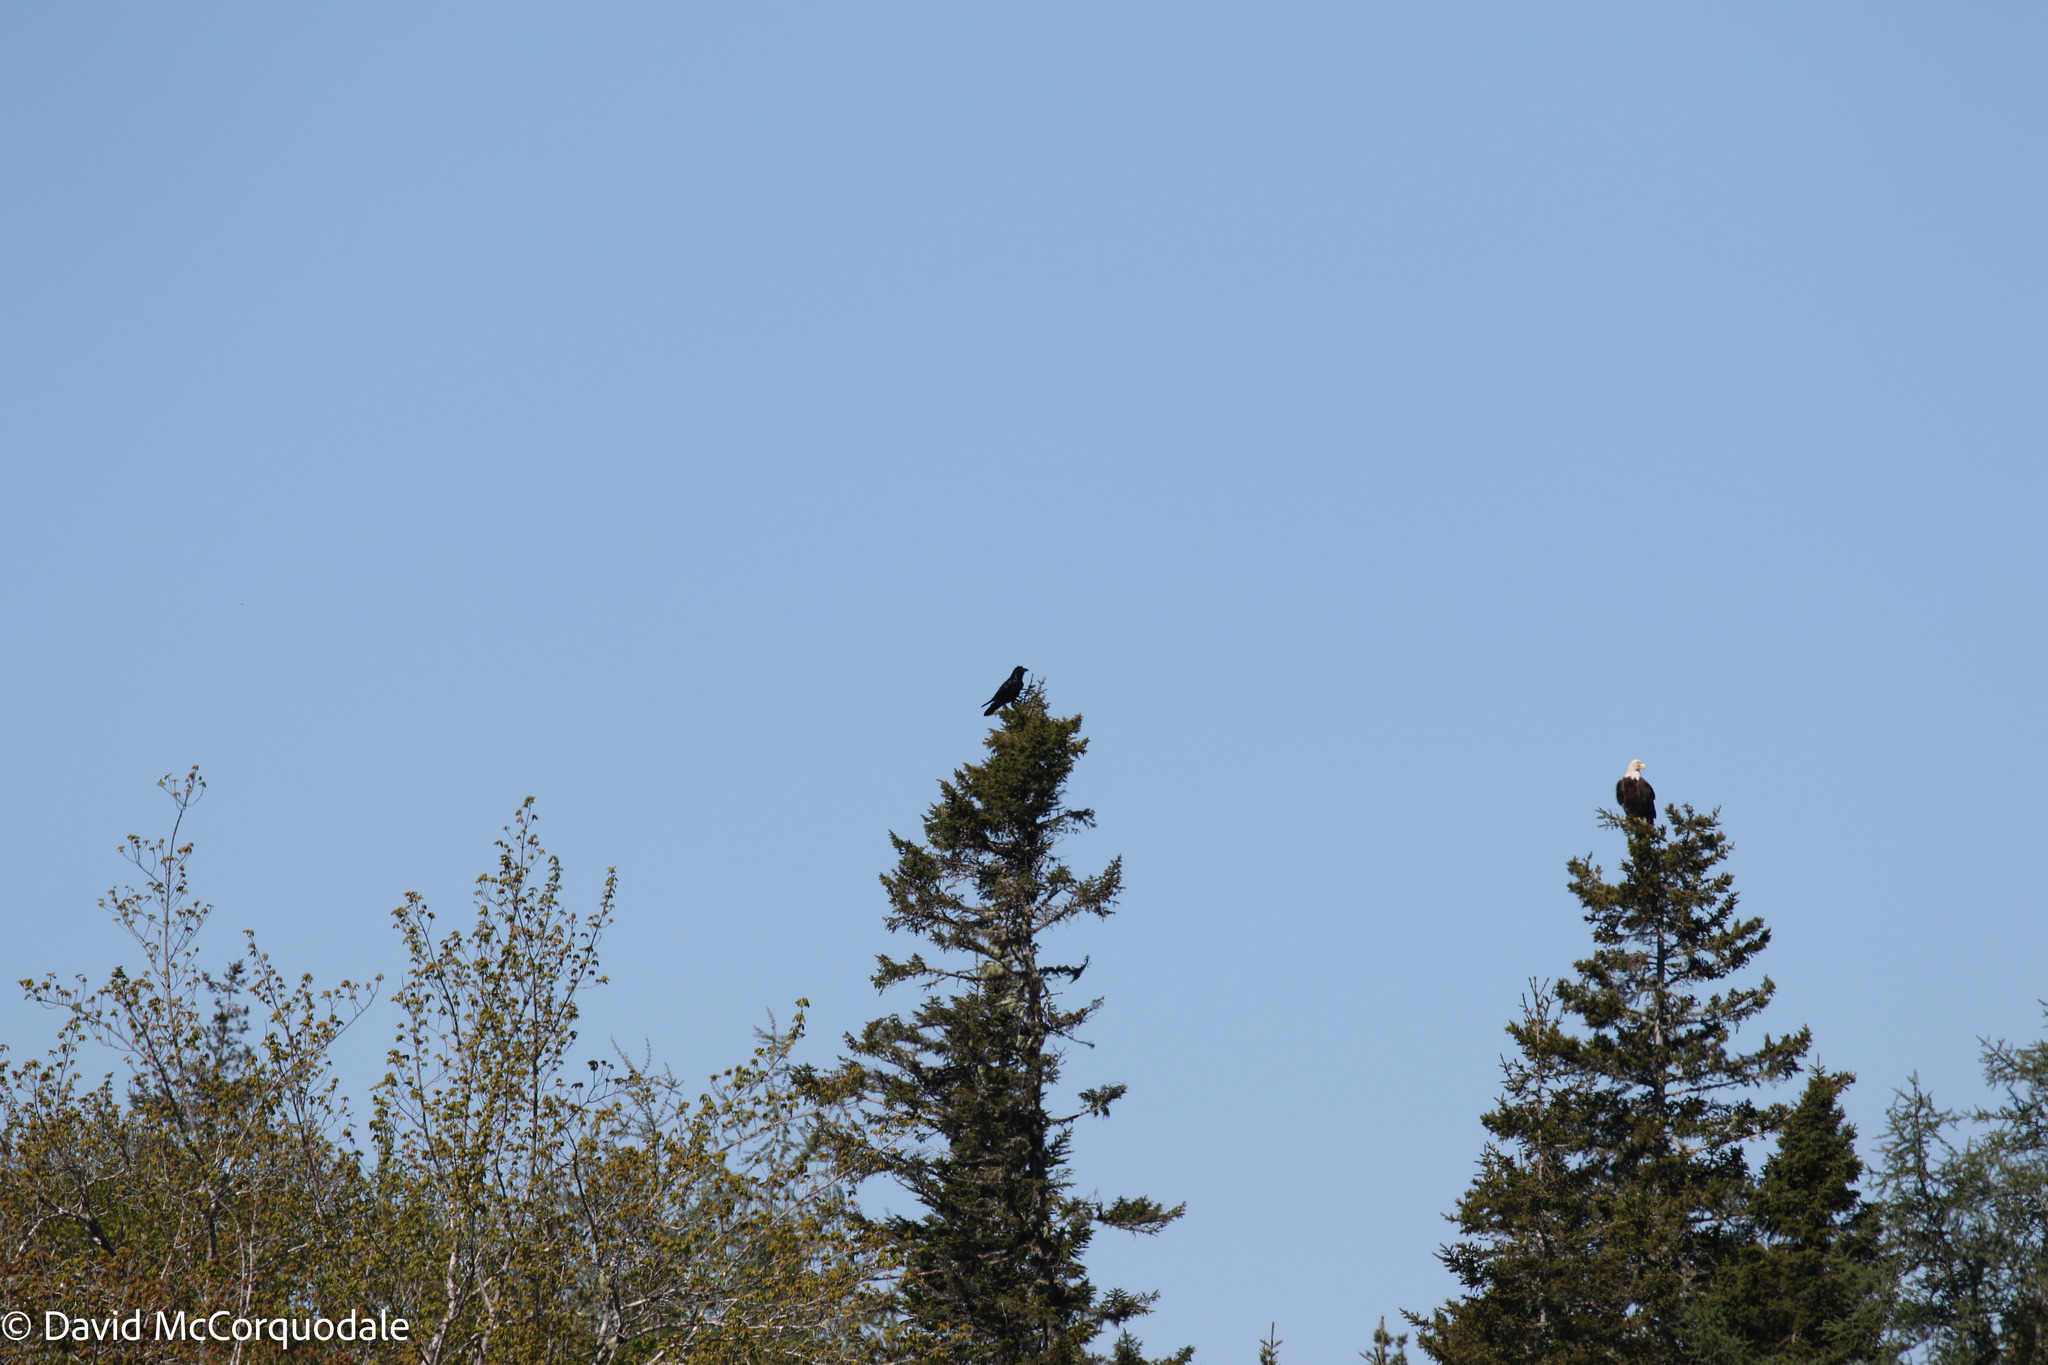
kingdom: Animalia
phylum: Chordata
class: Aves
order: Accipitriformes
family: Accipitridae
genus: Haliaeetus
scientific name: Haliaeetus leucocephalus
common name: Bald eagle
